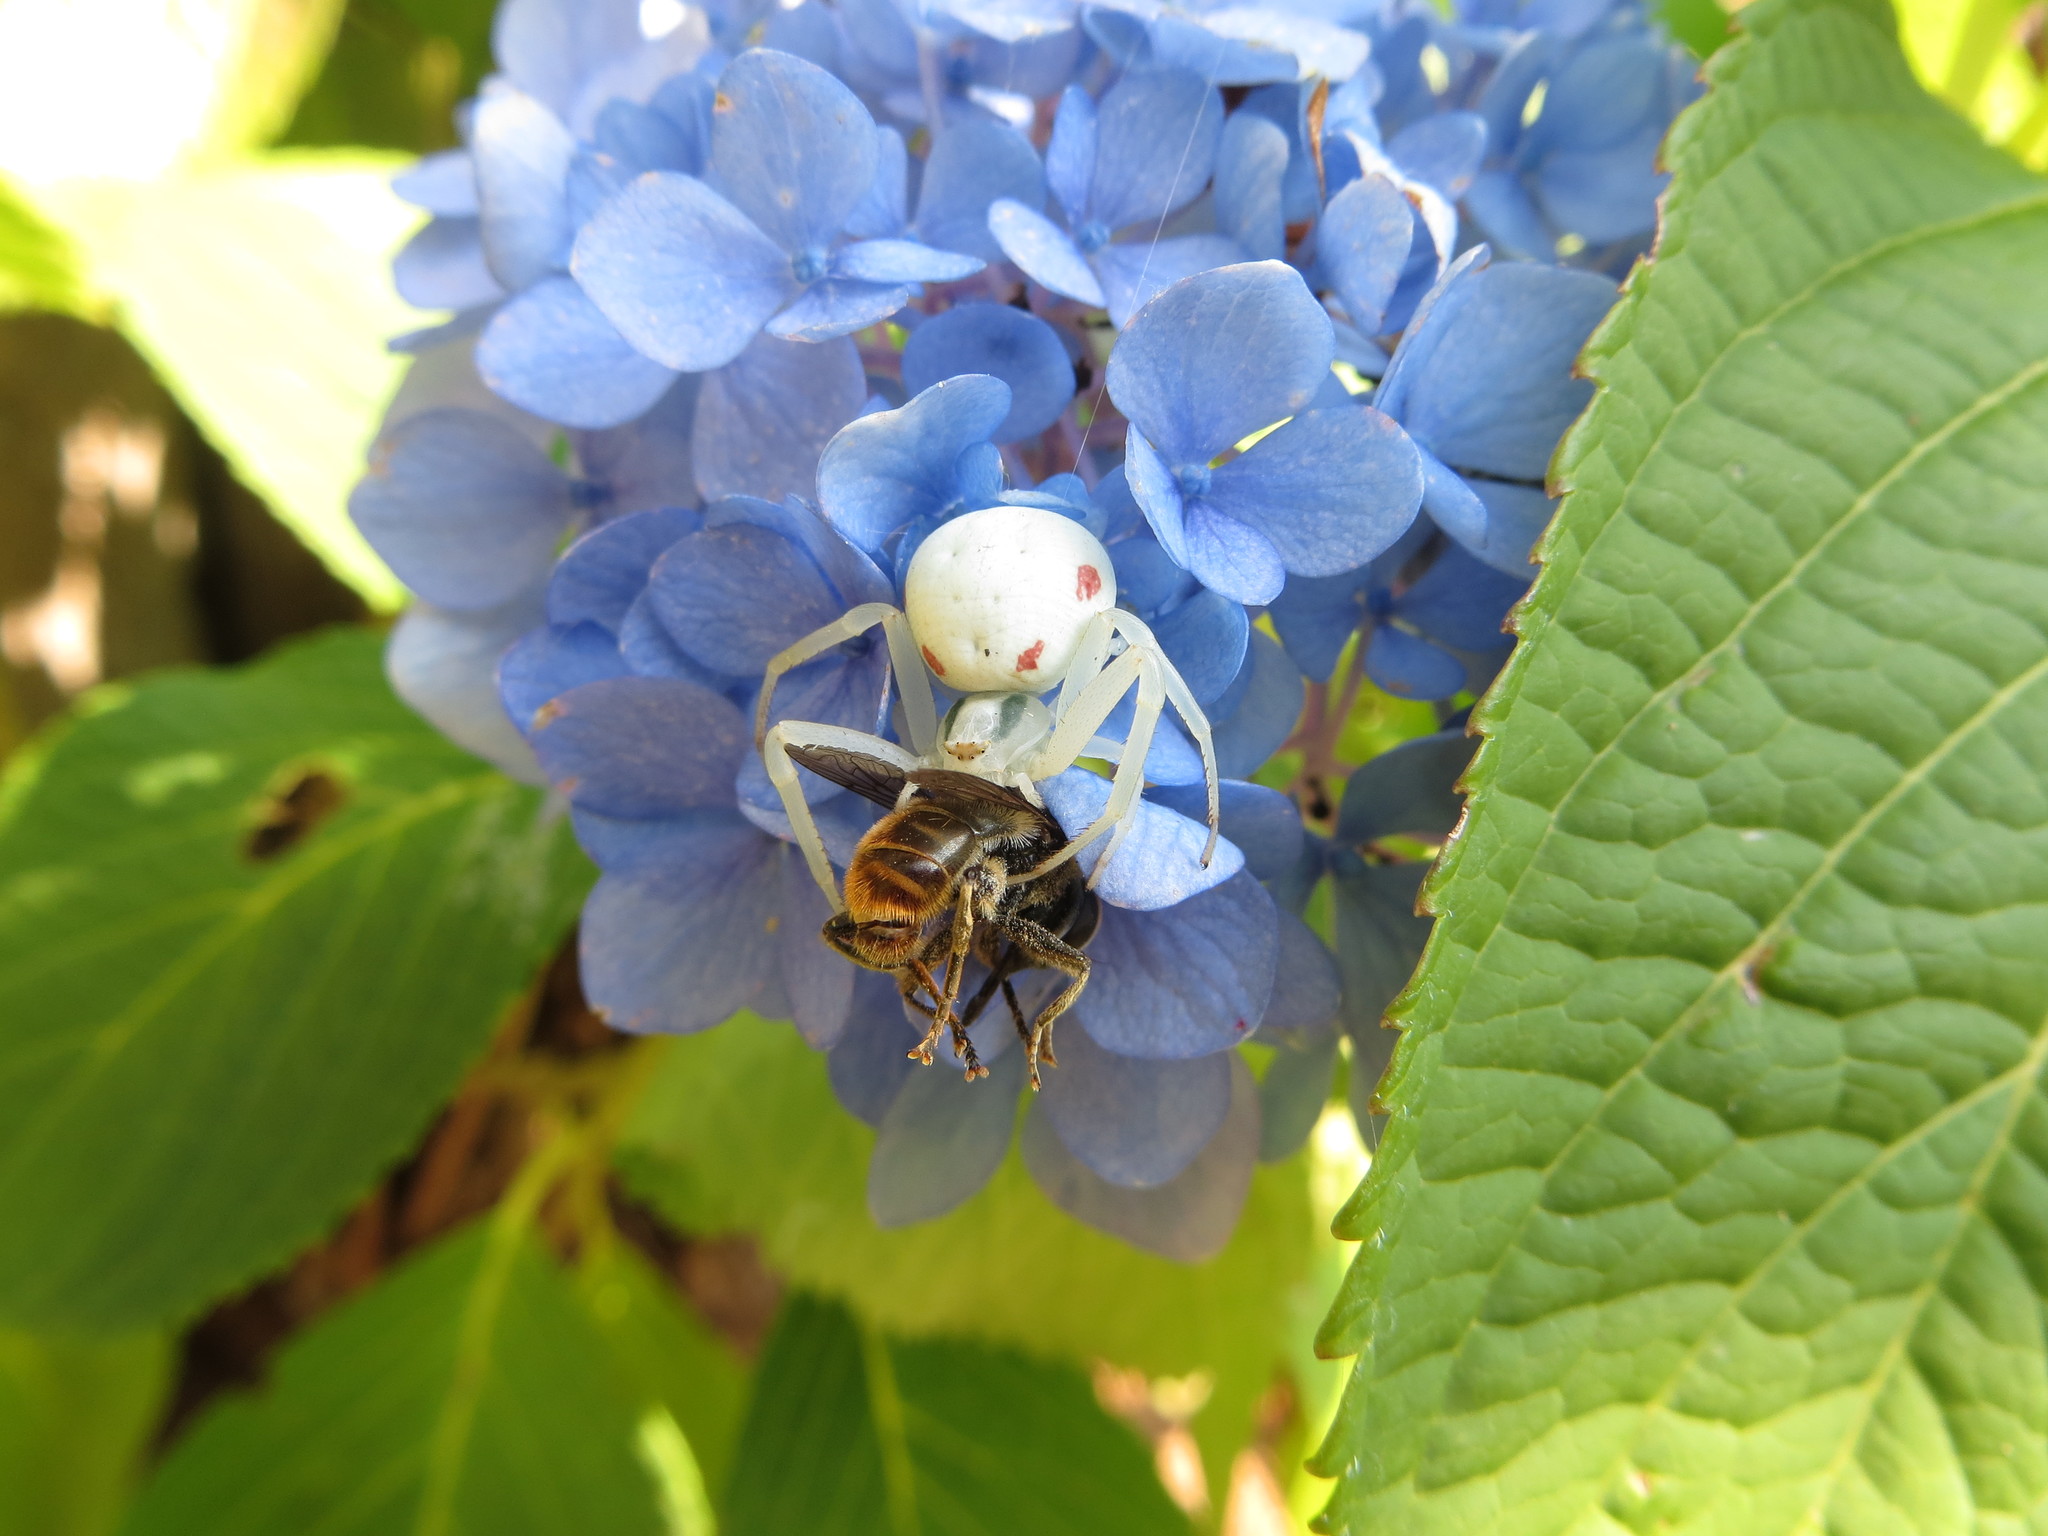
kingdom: Animalia
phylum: Arthropoda
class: Arachnida
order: Araneae
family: Thomisidae
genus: Misumena
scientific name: Misumena vatia
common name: Goldenrod crab spider
